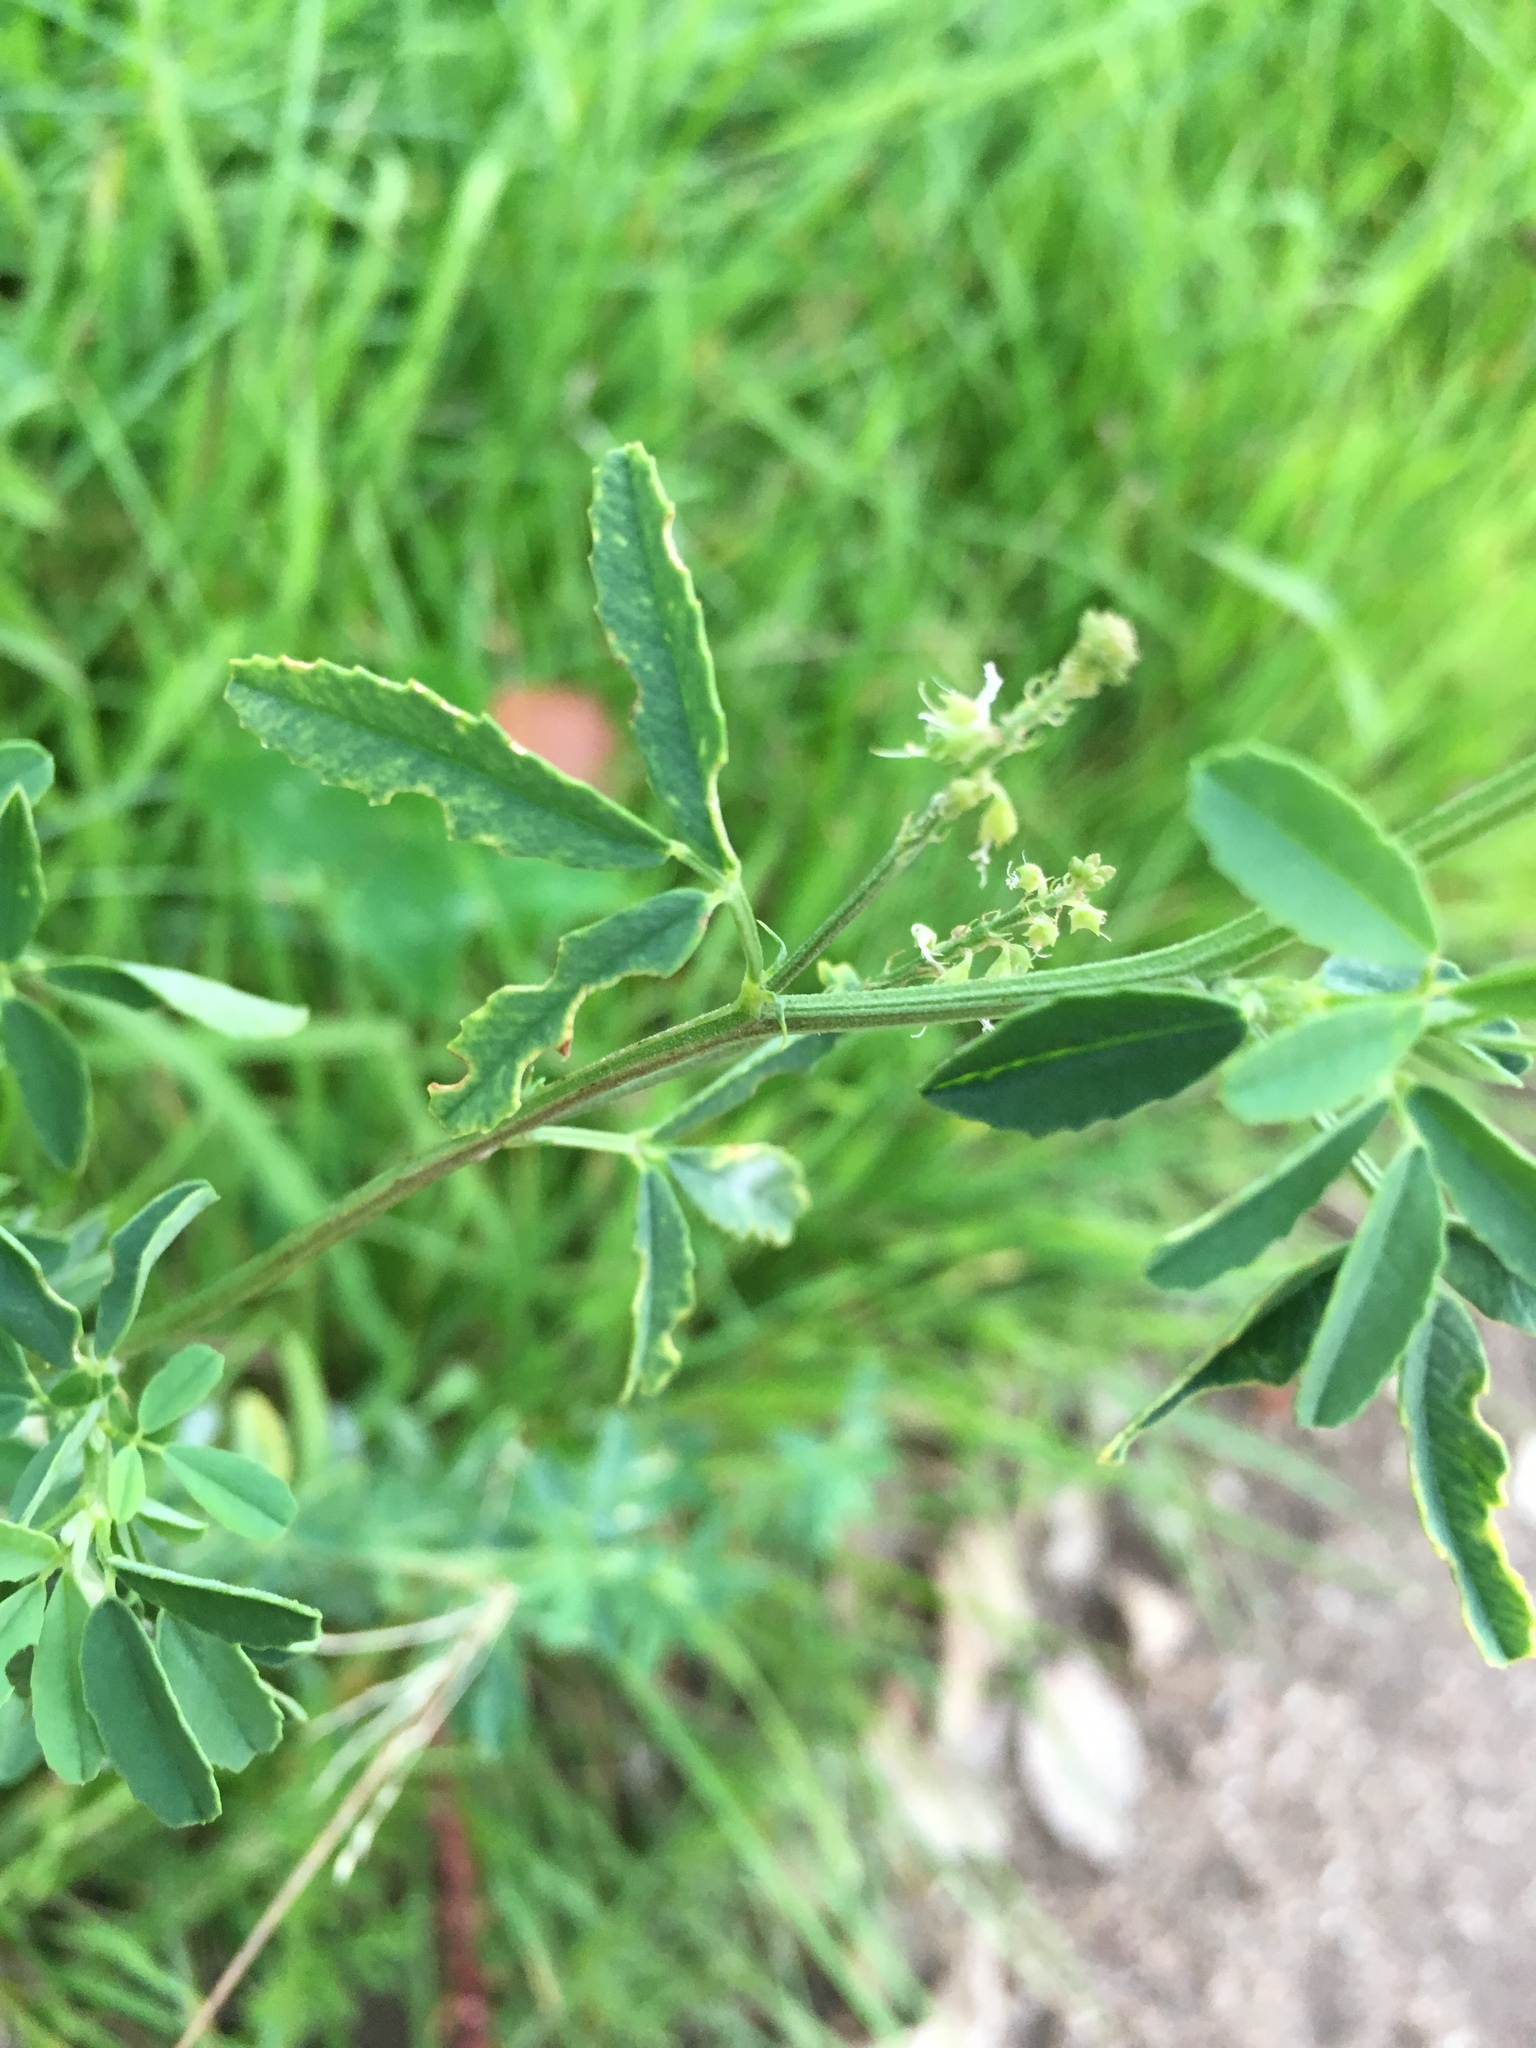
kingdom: Plantae
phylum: Tracheophyta
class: Magnoliopsida
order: Fabales
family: Fabaceae
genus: Melilotus
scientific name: Melilotus albus
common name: White melilot
